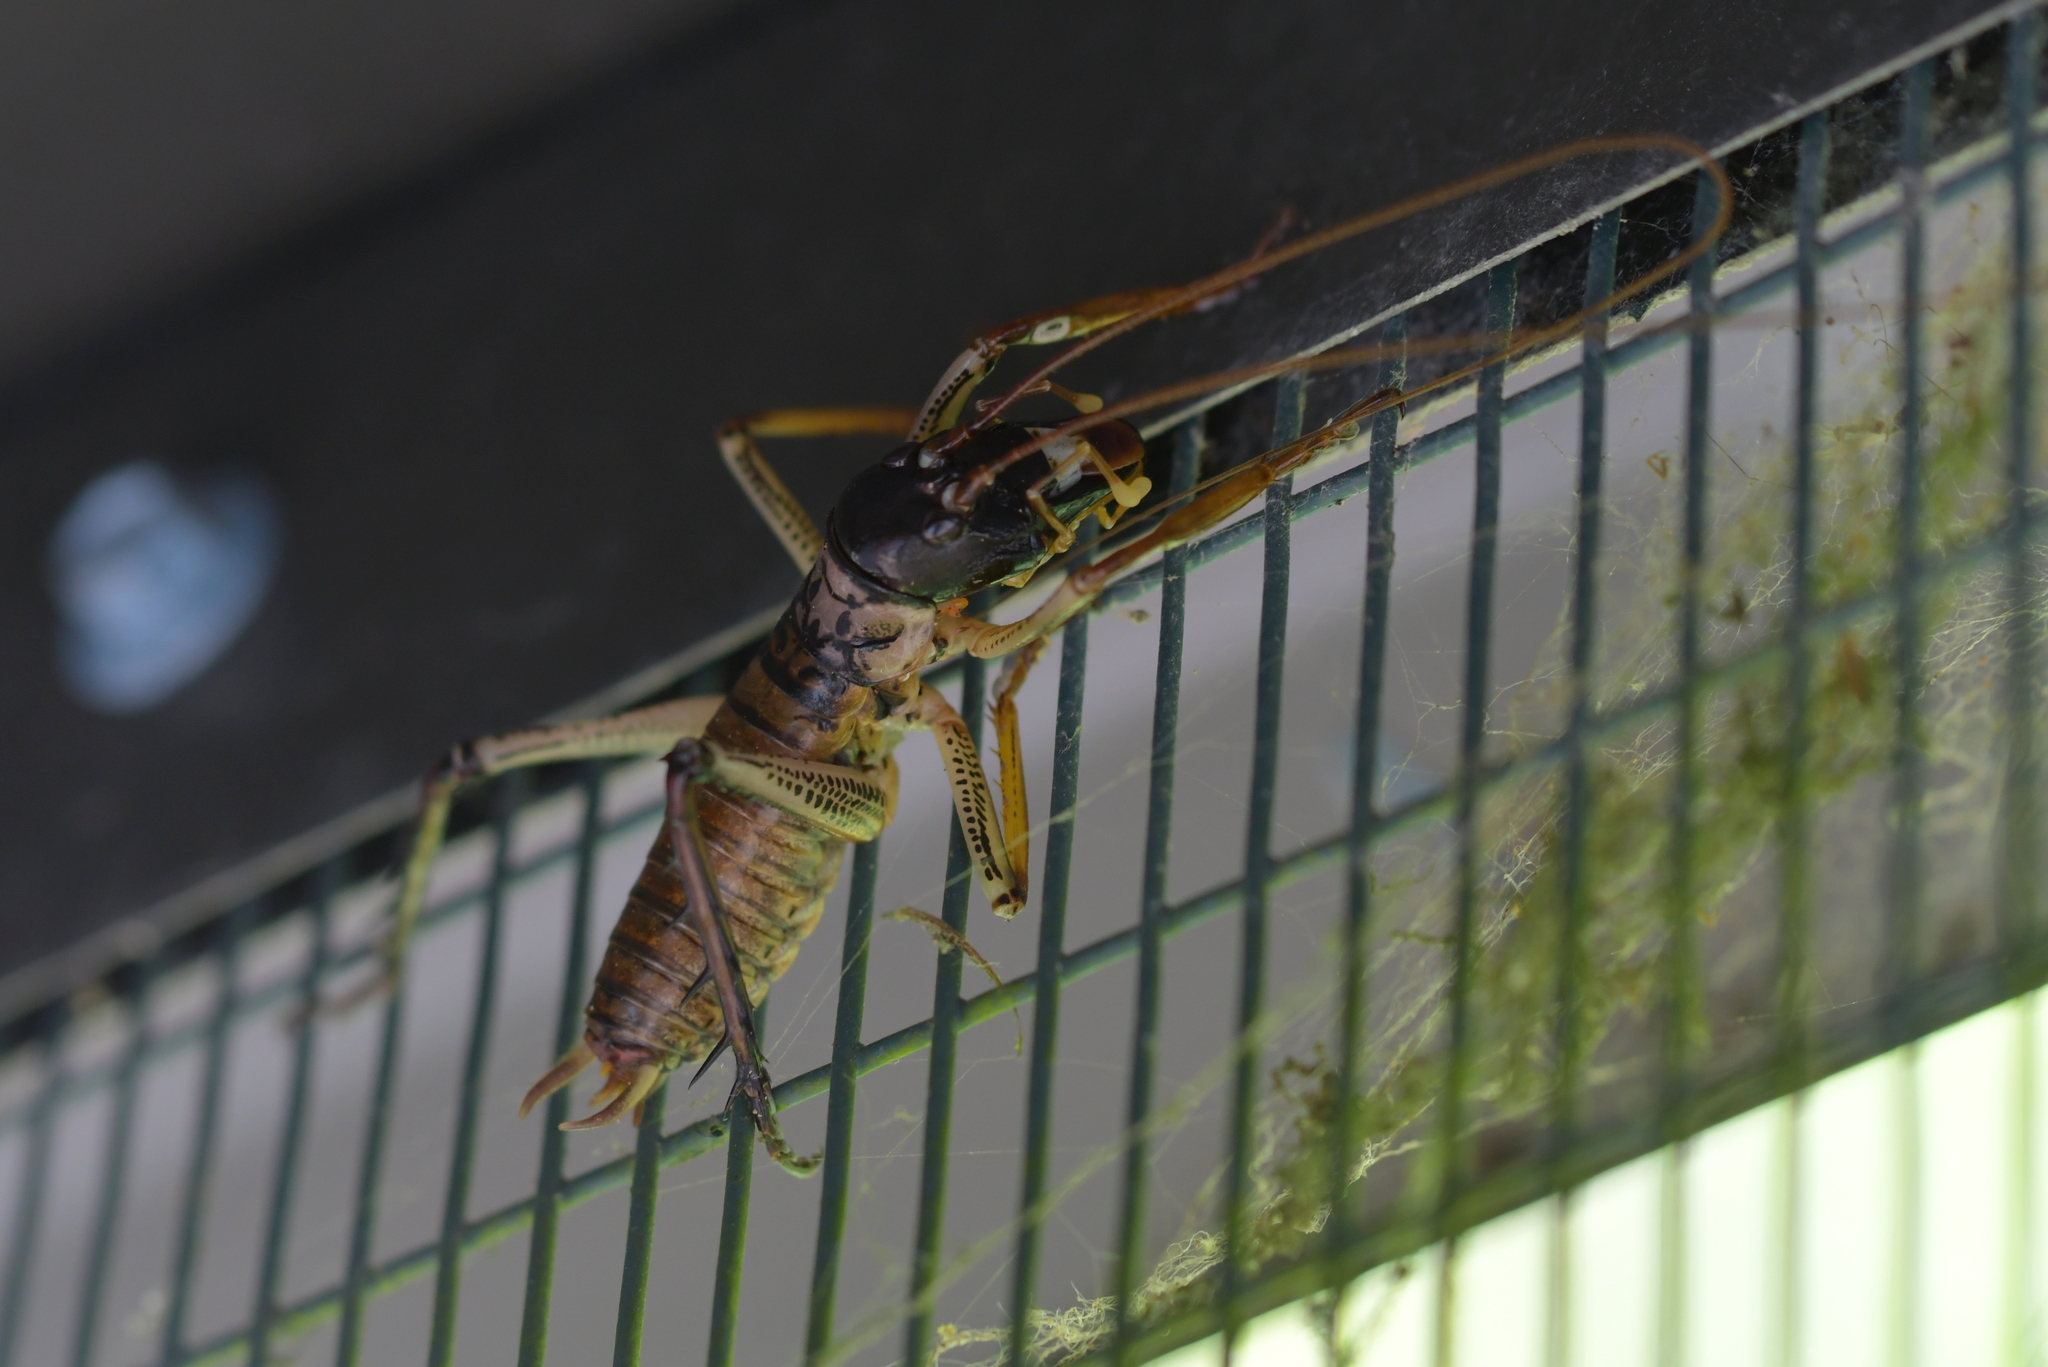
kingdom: Animalia
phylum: Arthropoda
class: Insecta
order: Orthoptera
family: Anostostomatidae
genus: Hemideina
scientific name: Hemideina thoracica
